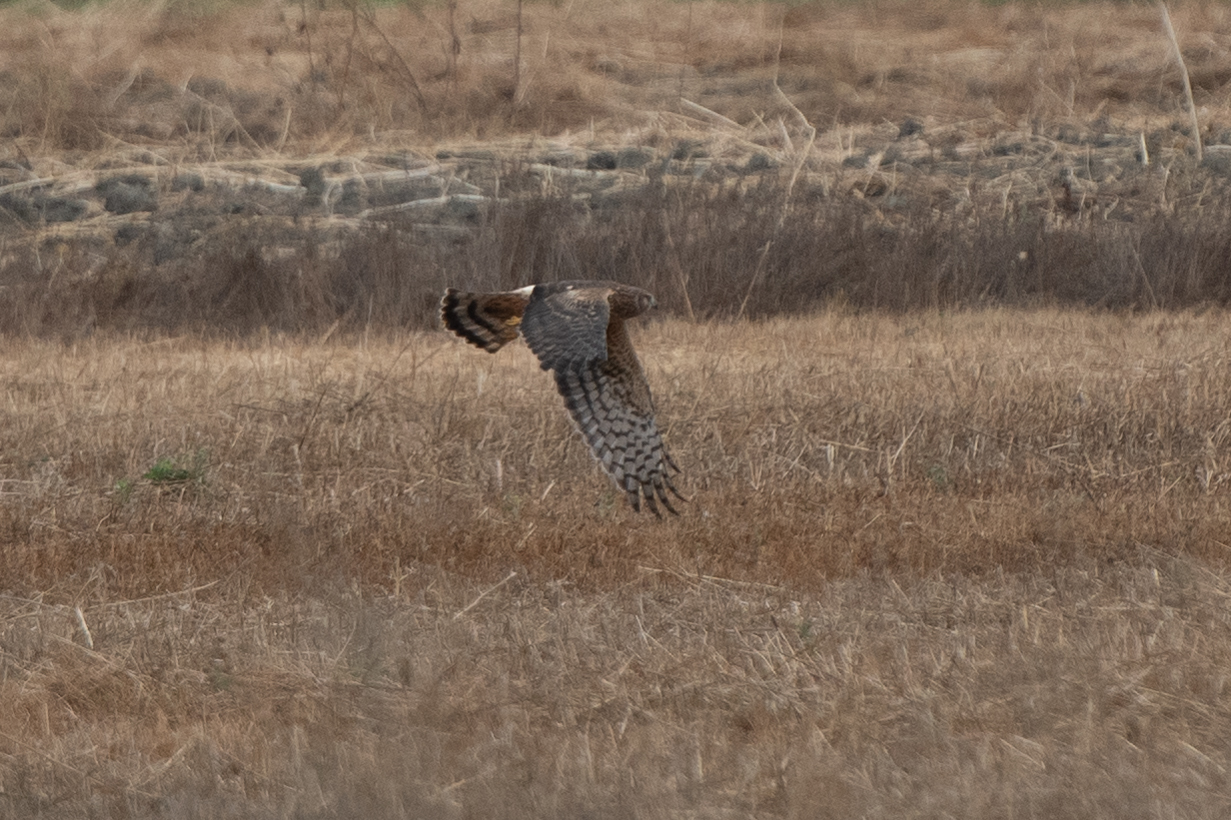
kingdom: Animalia
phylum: Chordata
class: Aves
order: Accipitriformes
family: Accipitridae
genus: Circus
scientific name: Circus cyaneus
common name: Hen harrier
